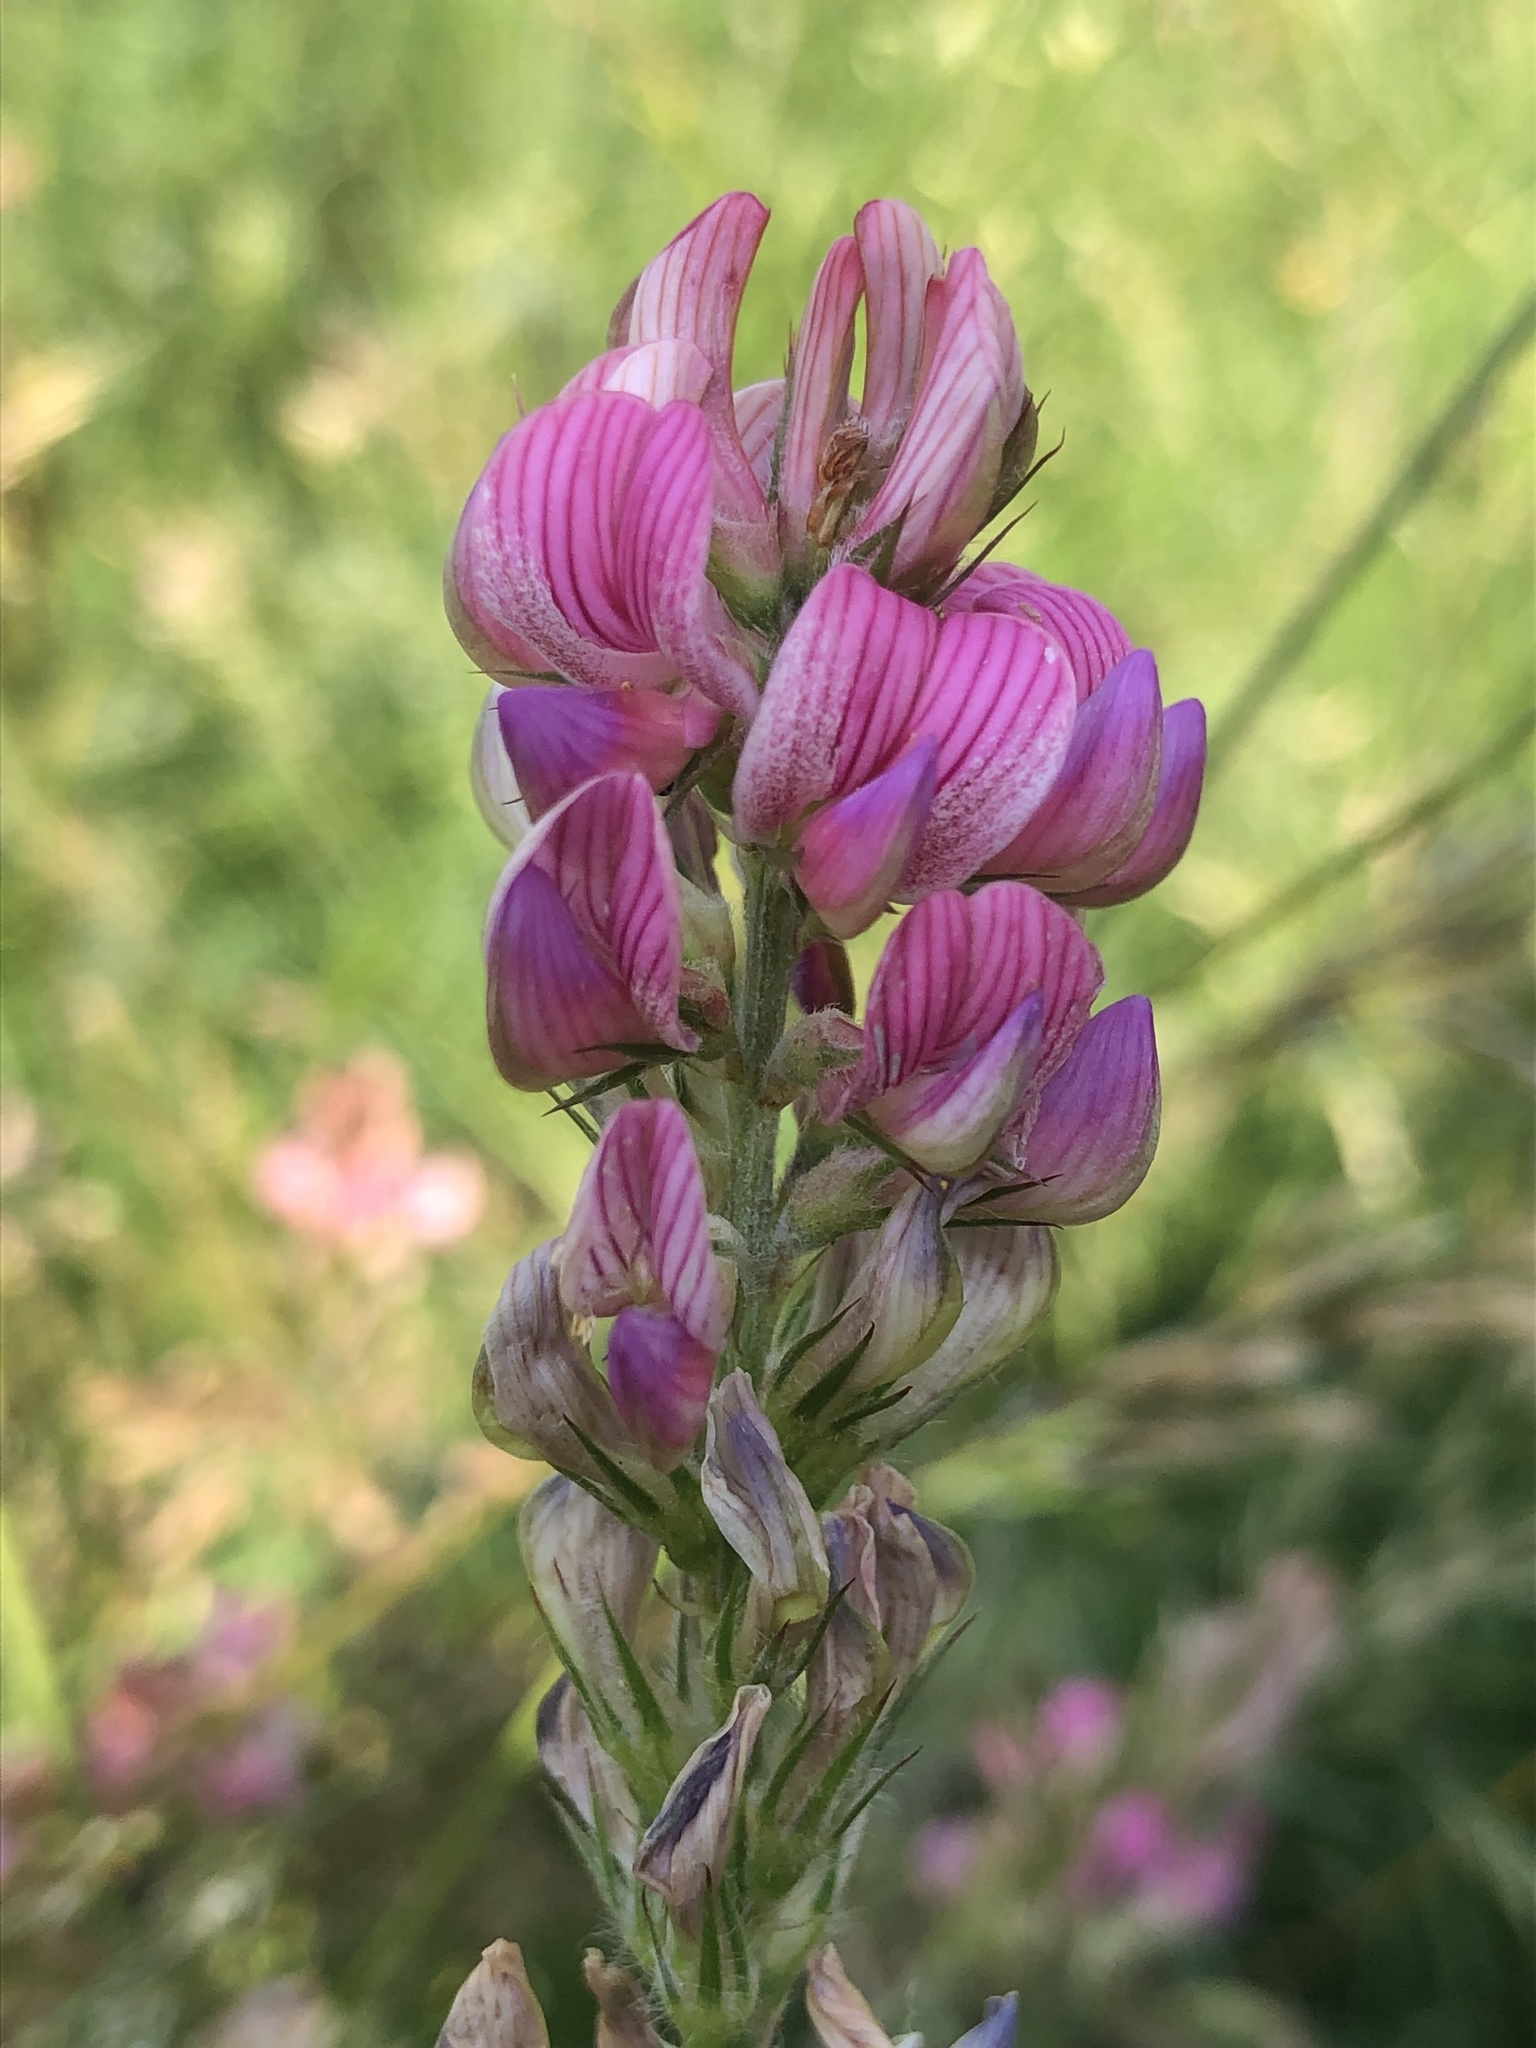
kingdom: Plantae
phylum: Tracheophyta
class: Magnoliopsida
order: Fabales
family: Fabaceae
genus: Onobrychis
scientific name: Onobrychis viciifolia
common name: Sainfoin
